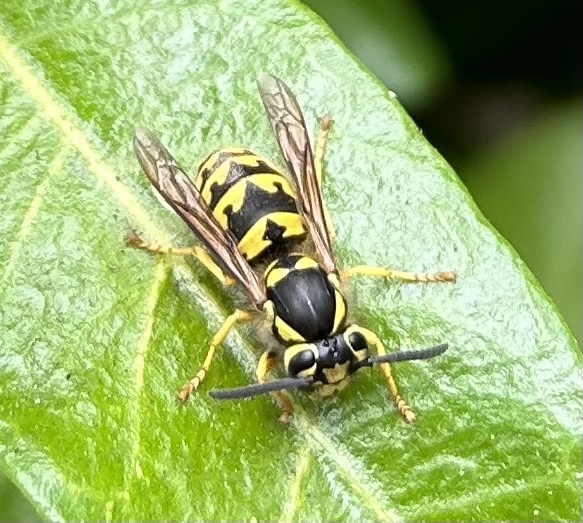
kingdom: Animalia
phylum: Arthropoda
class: Insecta
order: Hymenoptera
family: Vespidae
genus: Vespula
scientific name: Vespula pensylvanica
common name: Western yellowjacket
